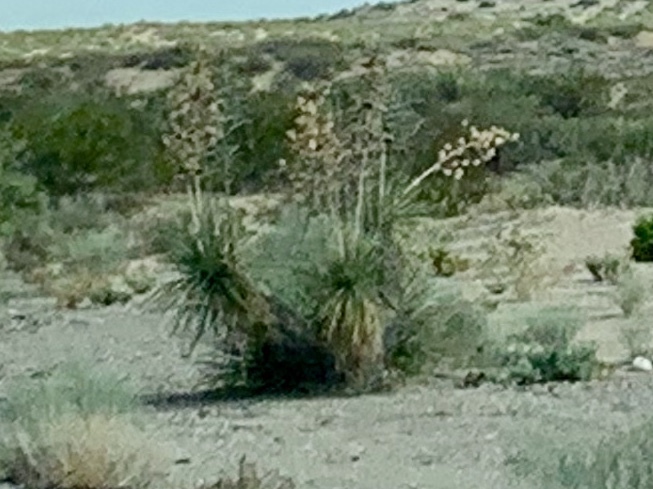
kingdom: Plantae
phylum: Tracheophyta
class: Liliopsida
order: Asparagales
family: Asparagaceae
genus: Yucca
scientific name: Yucca elata
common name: Palmella
